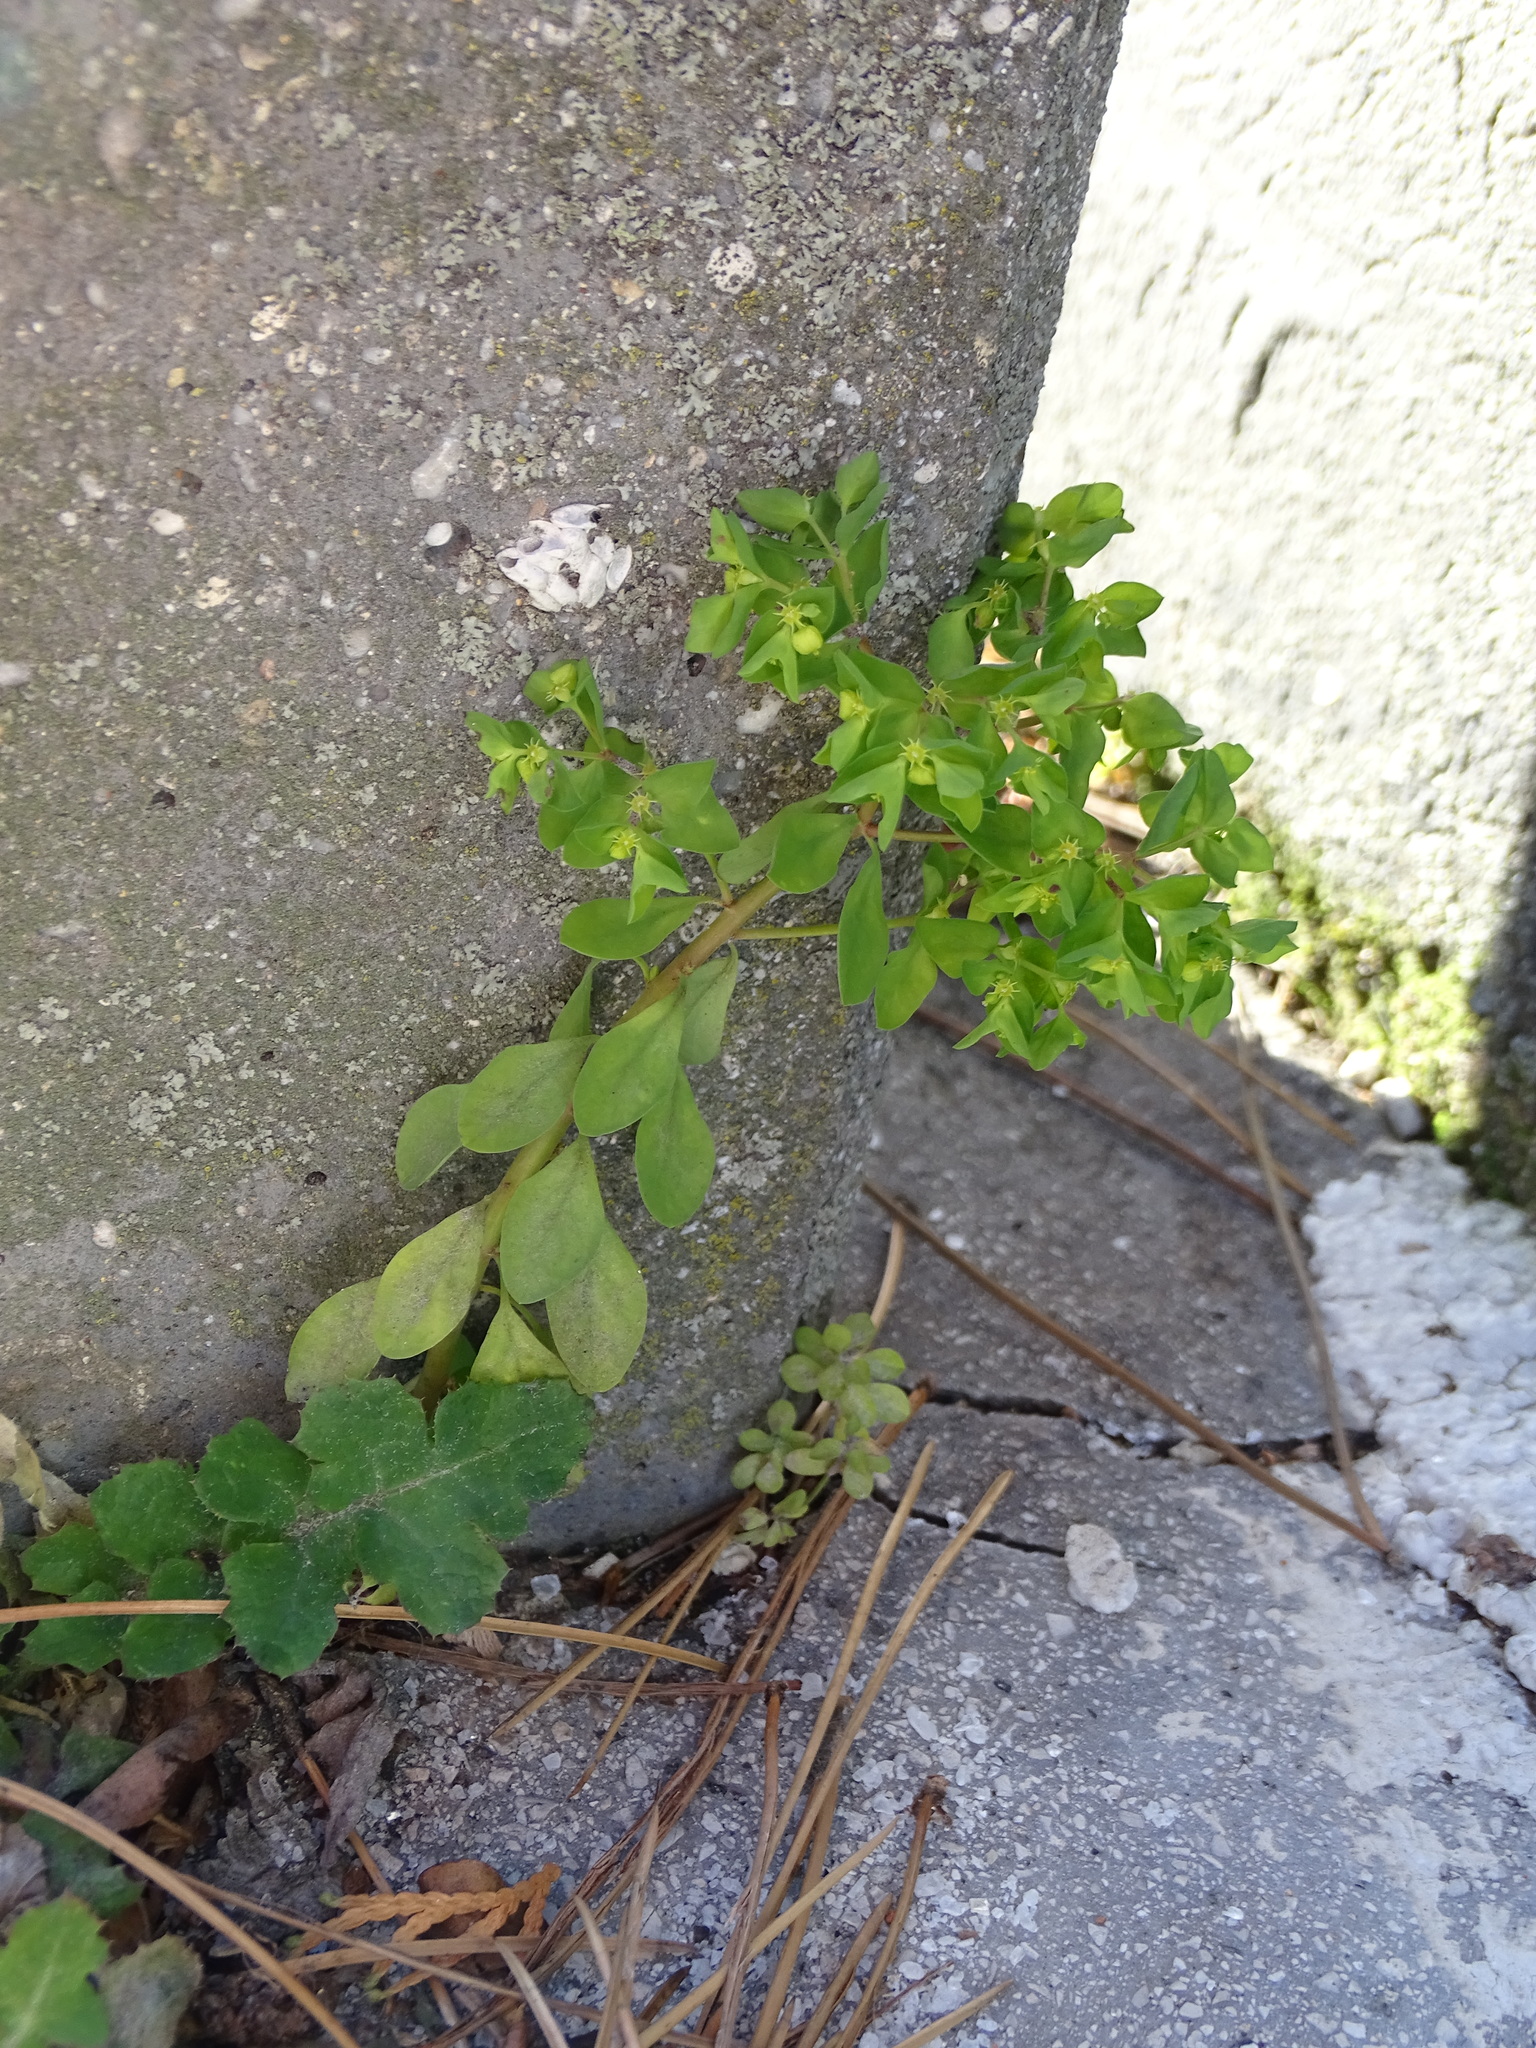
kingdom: Plantae
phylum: Tracheophyta
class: Magnoliopsida
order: Malpighiales
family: Euphorbiaceae
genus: Euphorbia
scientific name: Euphorbia peplus
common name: Petty spurge
